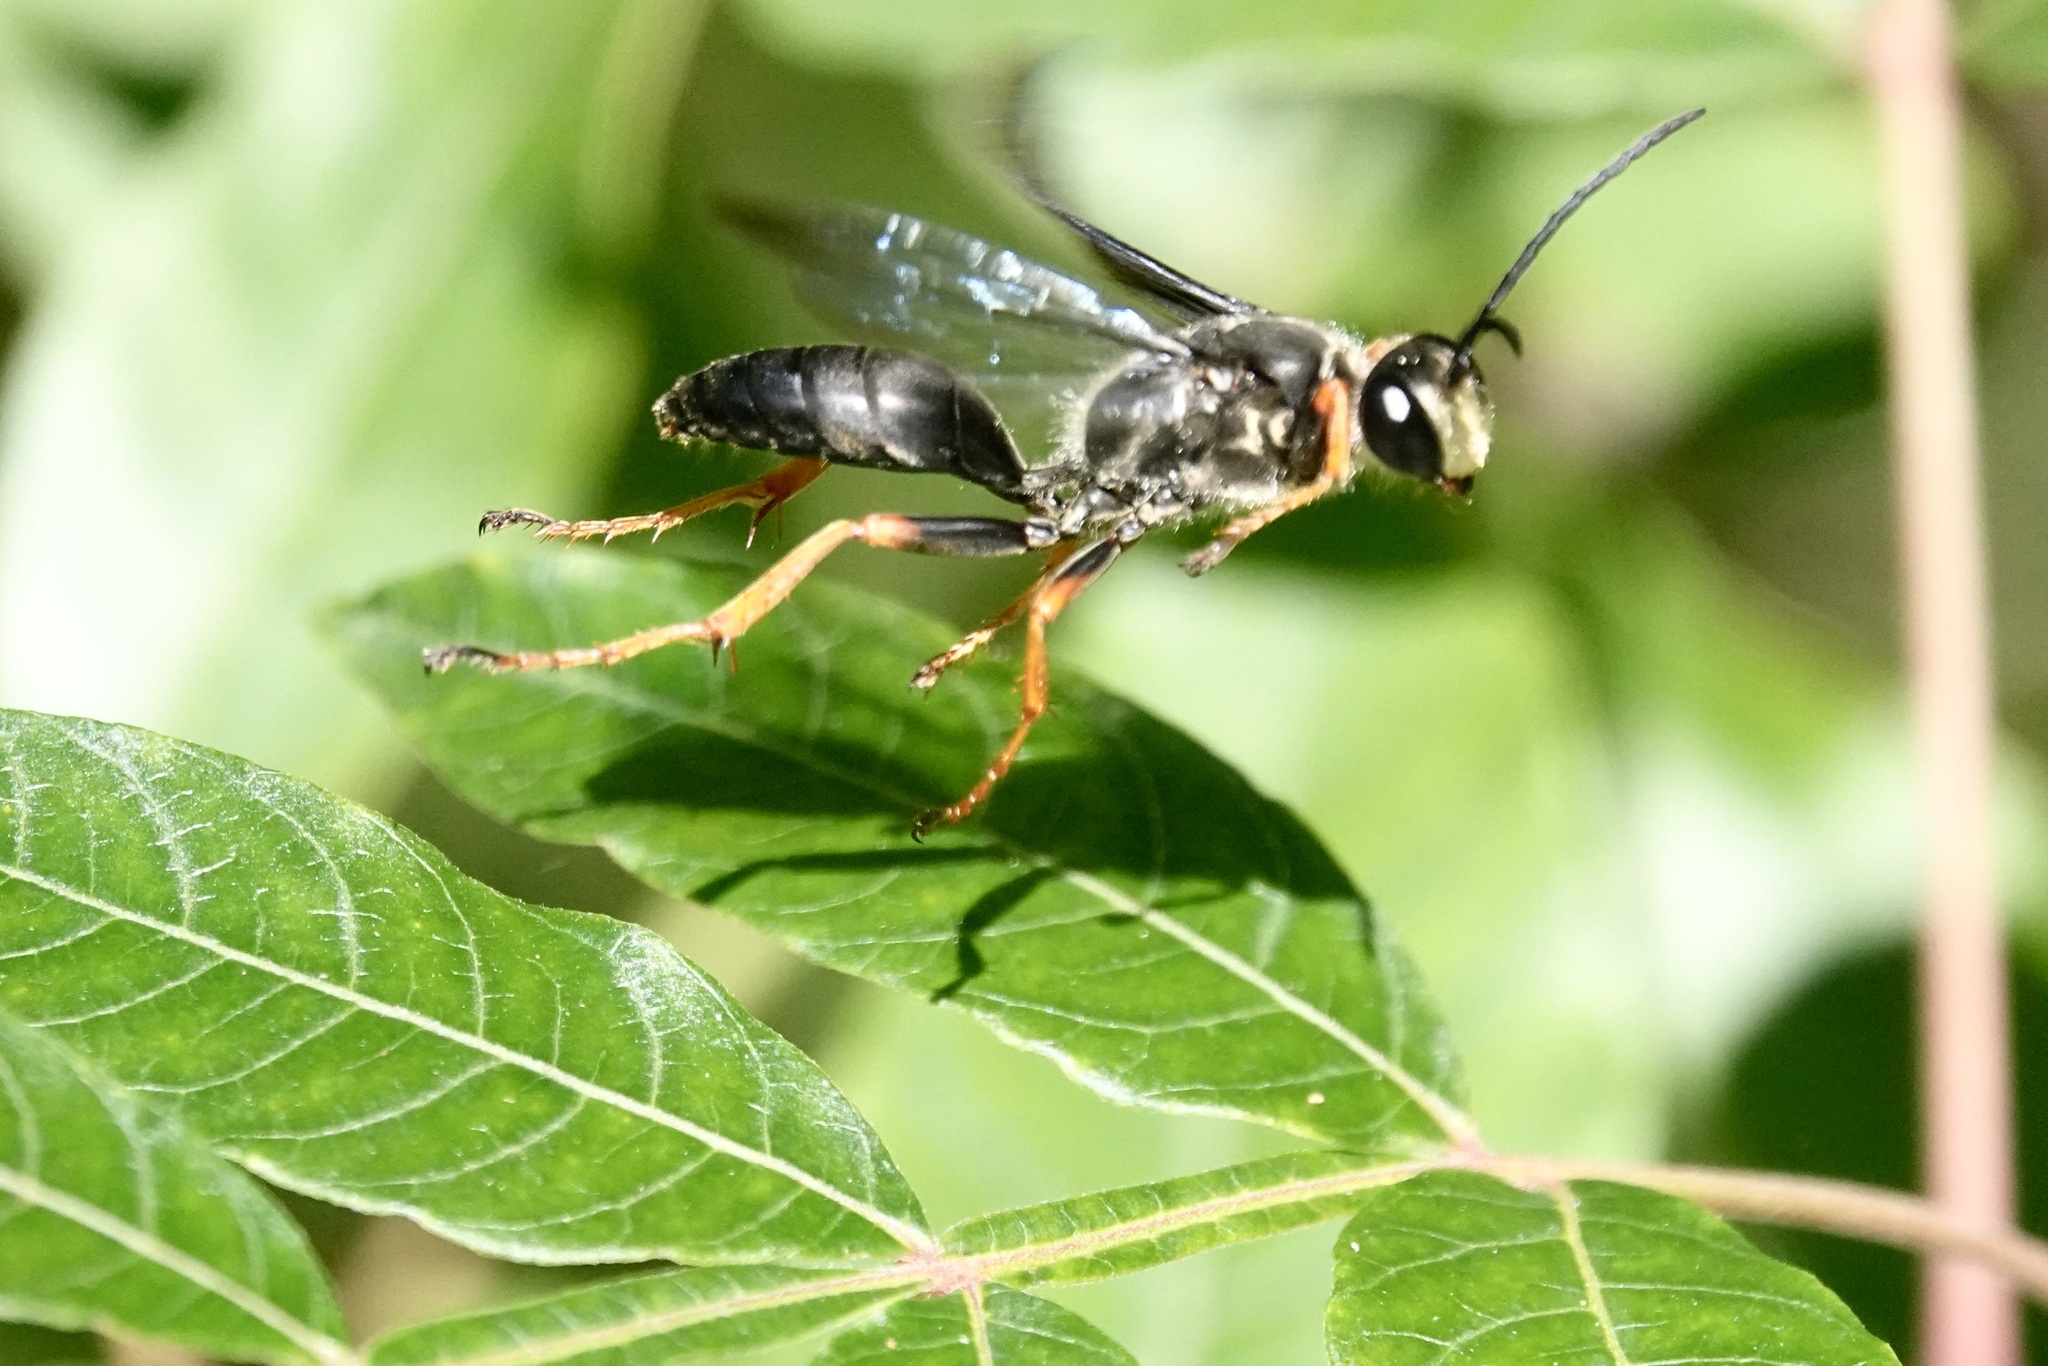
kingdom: Animalia
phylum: Arthropoda
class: Insecta
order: Hymenoptera
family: Sphecidae
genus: Sphex
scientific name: Sphex nudus
